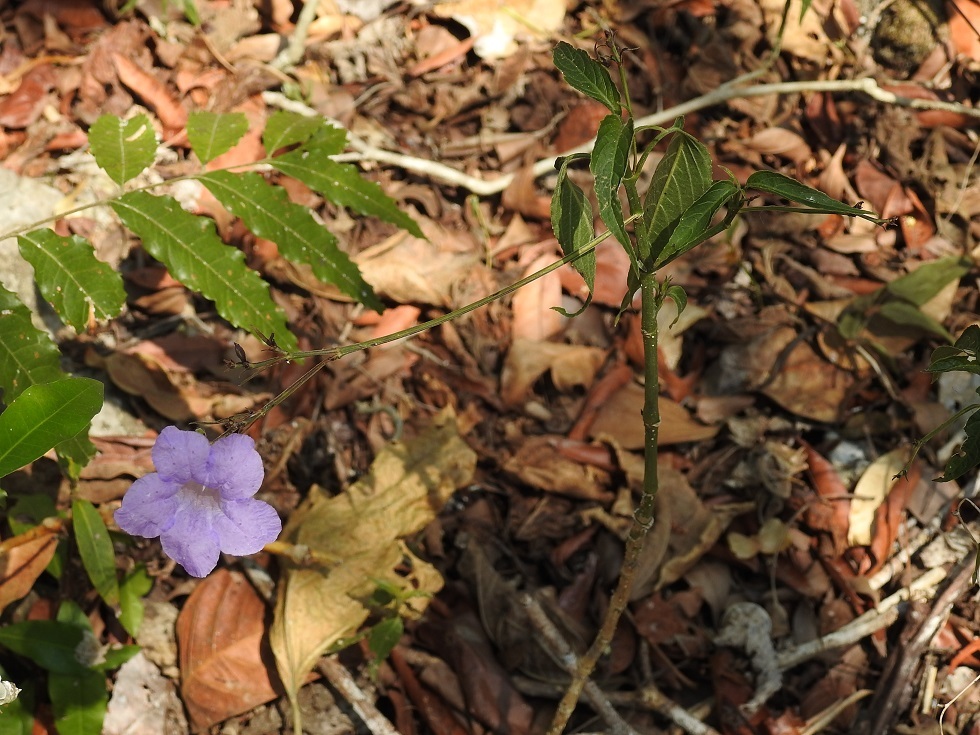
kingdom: Plantae
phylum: Tracheophyta
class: Magnoliopsida
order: Lamiales
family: Acanthaceae
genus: Ruellia
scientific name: Ruellia breedlovei
